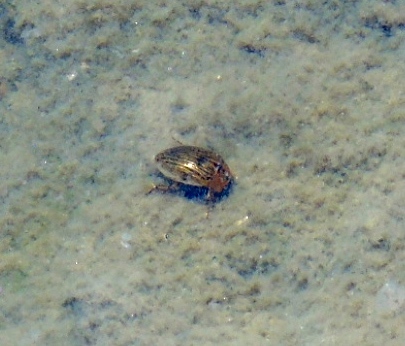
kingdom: Animalia
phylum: Arthropoda
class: Insecta
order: Coleoptera
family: Hydrophilidae
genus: Tropisternus
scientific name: Tropisternus collaris
